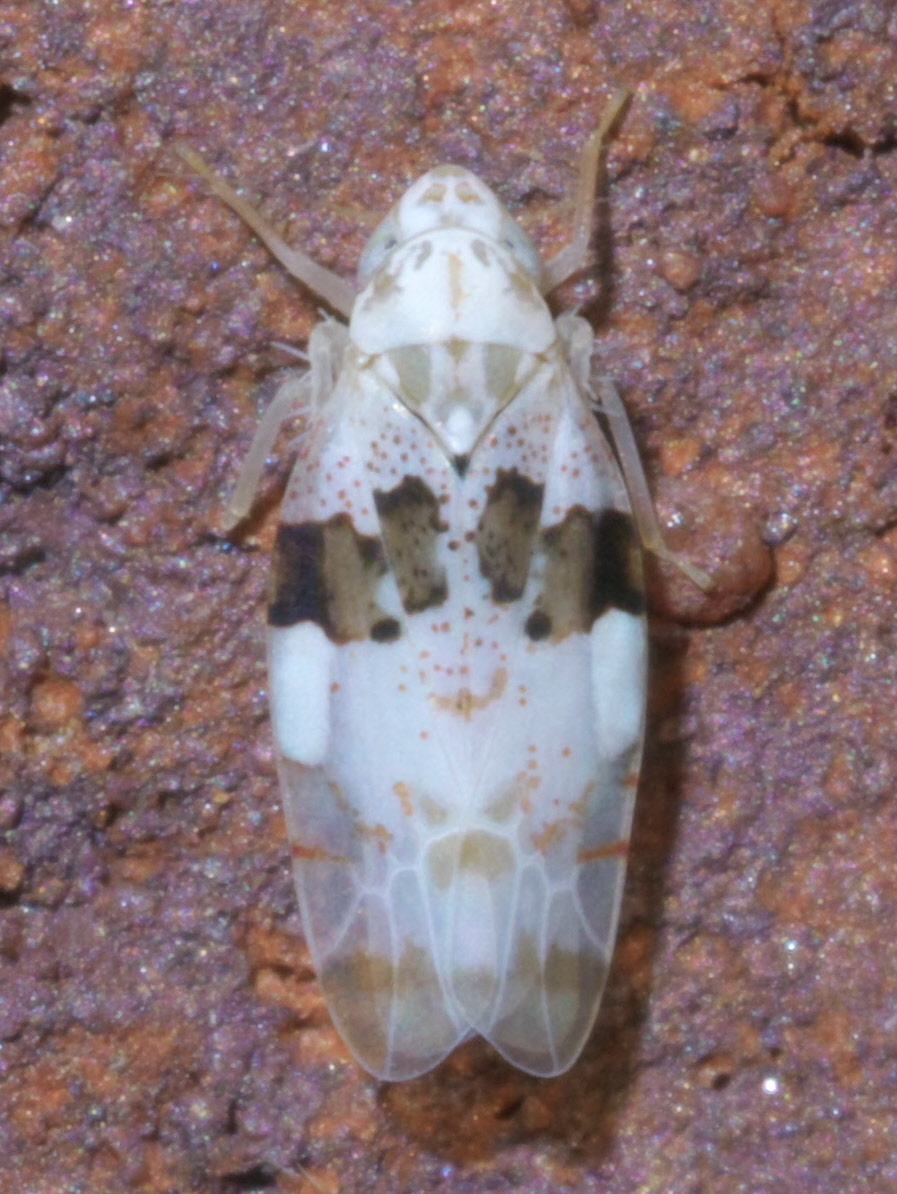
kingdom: Animalia
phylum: Arthropoda
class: Insecta
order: Hemiptera
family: Cicadellidae
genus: Hymetta
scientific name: Hymetta anthisma
